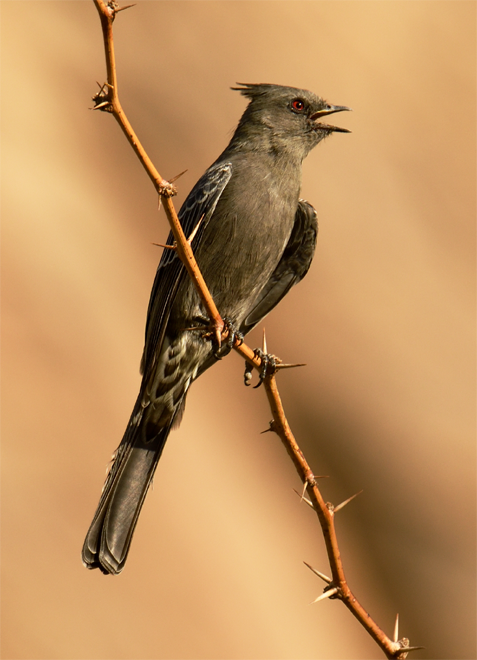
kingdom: Animalia
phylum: Chordata
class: Aves
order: Passeriformes
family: Ptilogonatidae
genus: Phainopepla
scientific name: Phainopepla nitens
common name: Phainopepla
